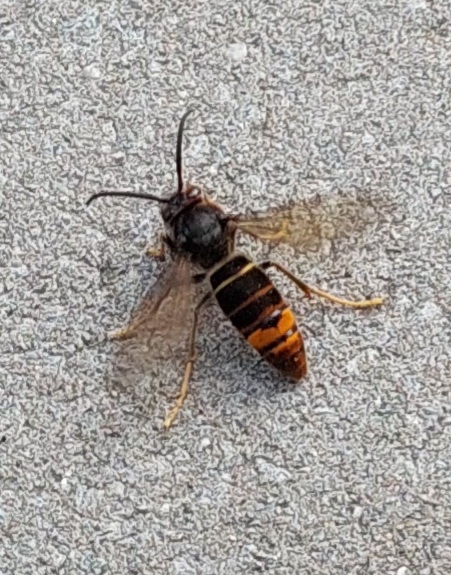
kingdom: Animalia
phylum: Arthropoda
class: Insecta
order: Hymenoptera
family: Vespidae
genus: Vespa
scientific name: Vespa velutina
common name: Asian hornet
